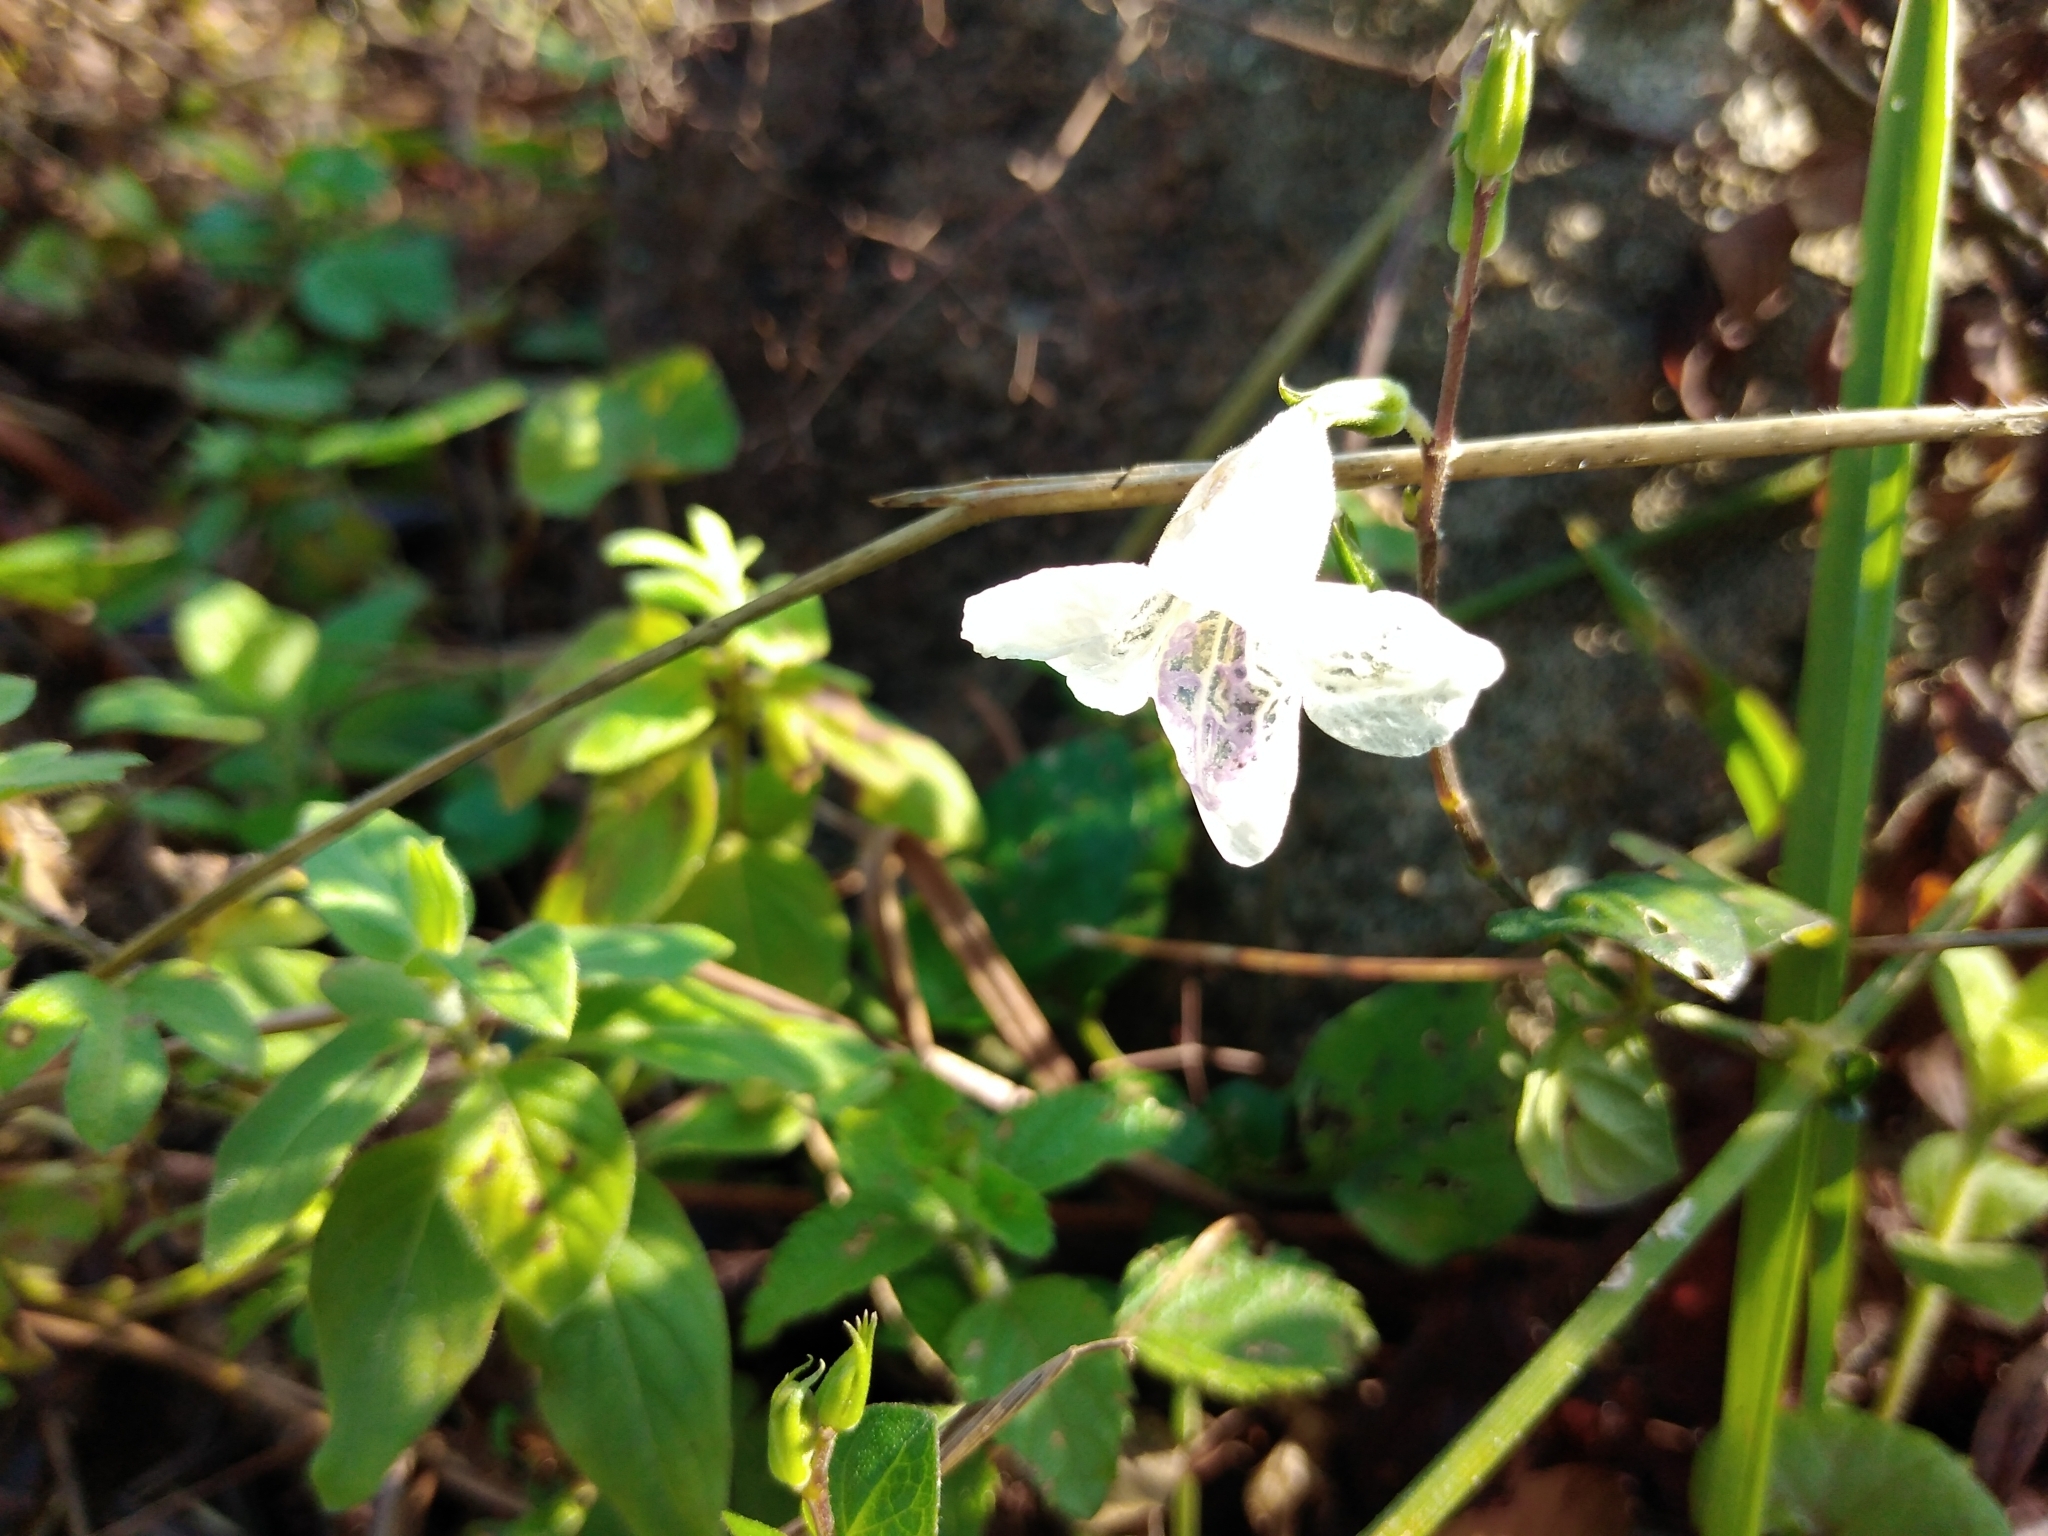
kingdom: Plantae
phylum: Tracheophyta
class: Magnoliopsida
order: Lamiales
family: Acanthaceae
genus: Asystasia
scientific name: Asystasia intrusa
